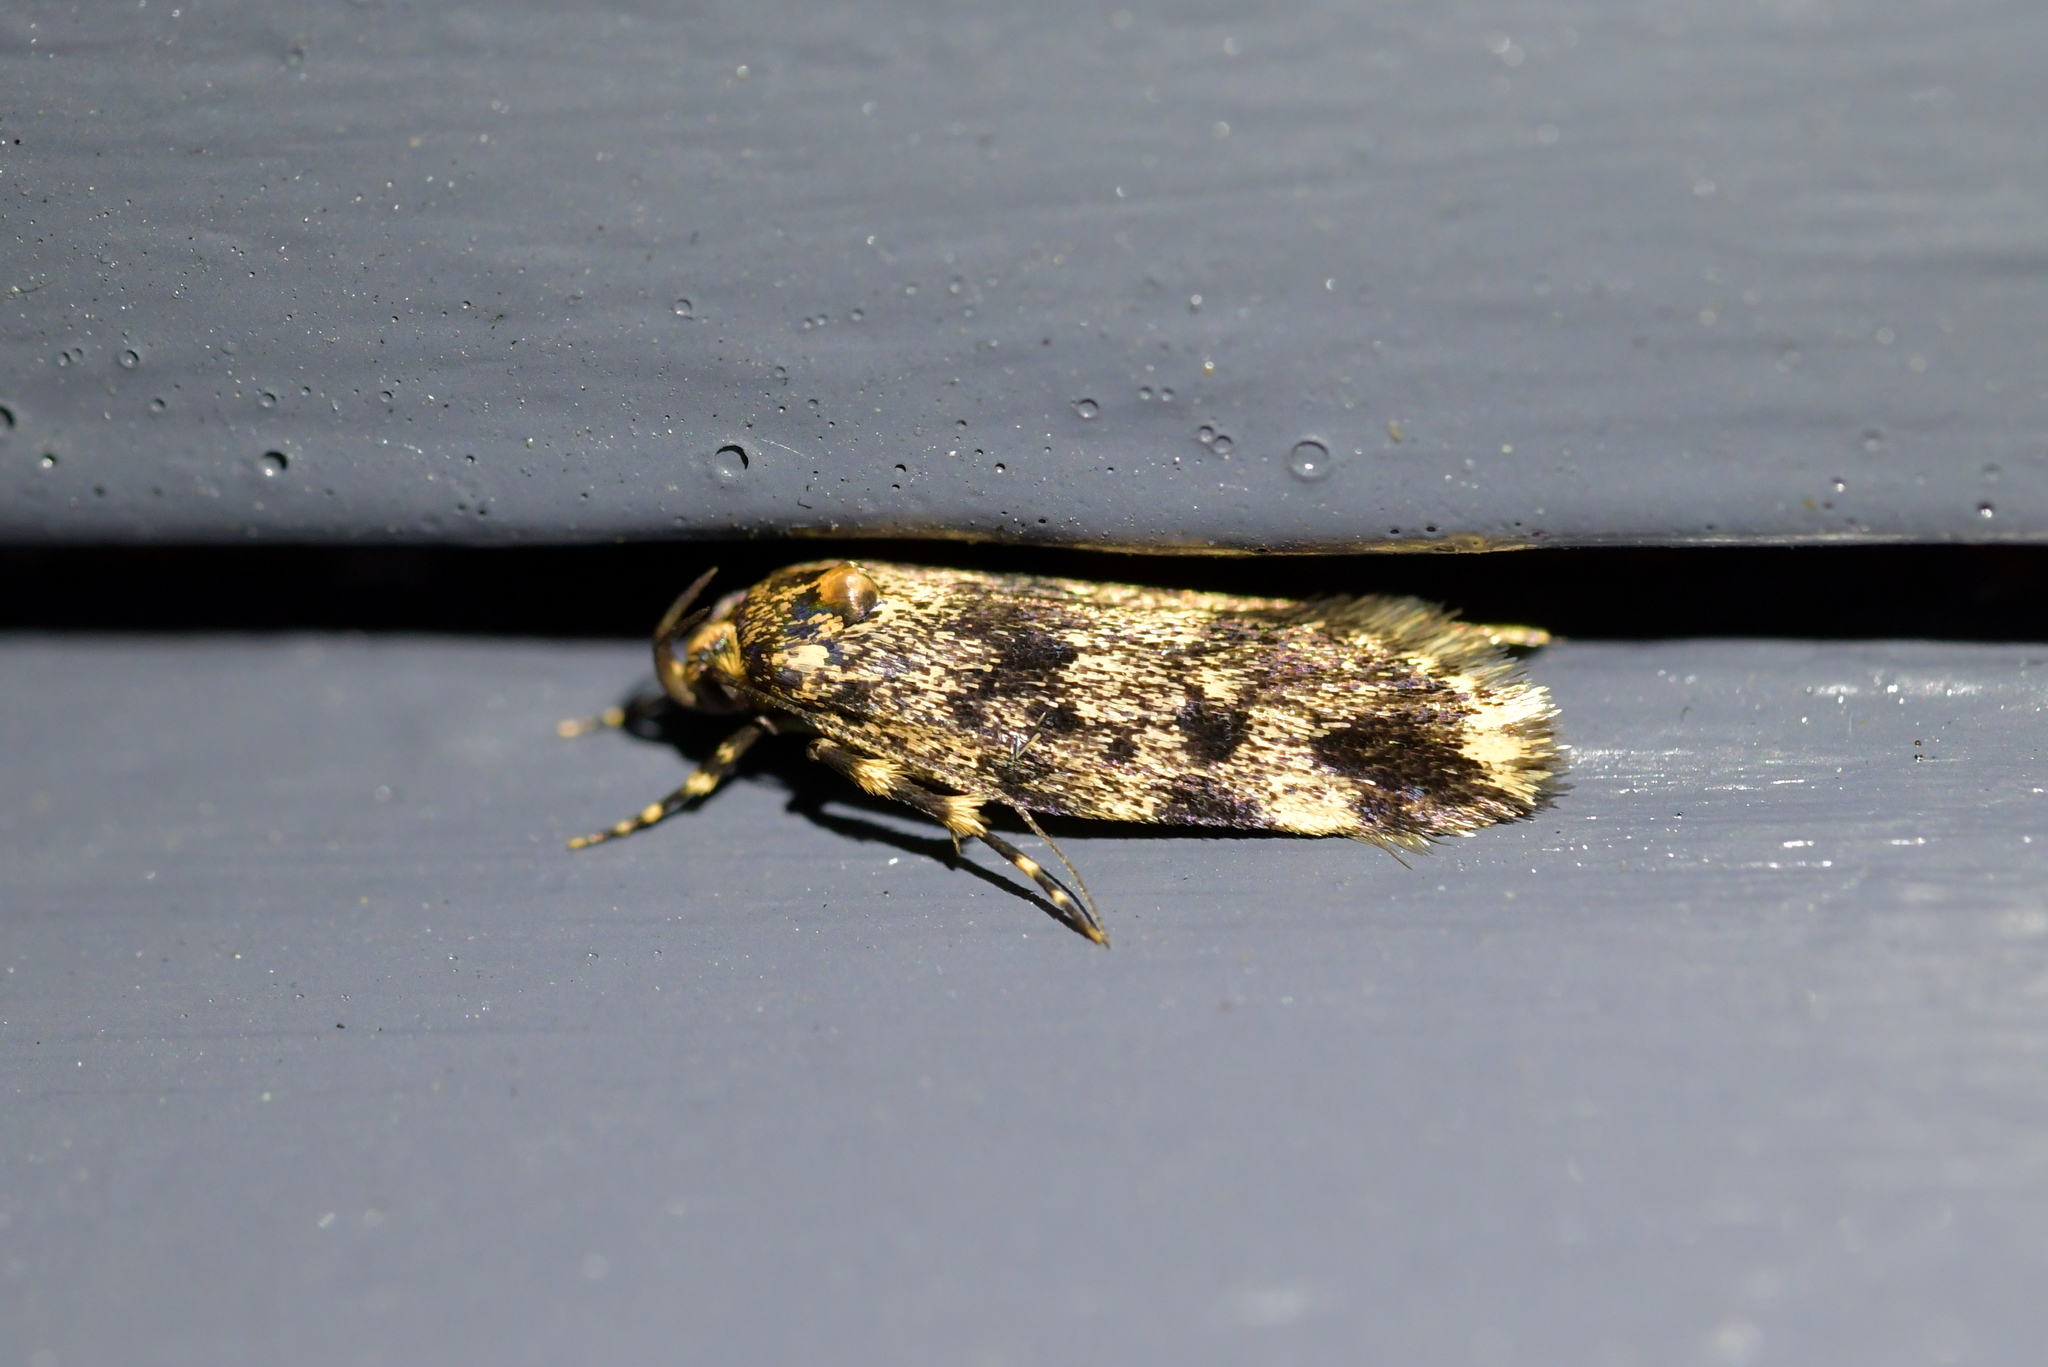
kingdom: Animalia
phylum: Arthropoda
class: Insecta
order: Lepidoptera
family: Oecophoridae
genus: Barea
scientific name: Barea codrella
